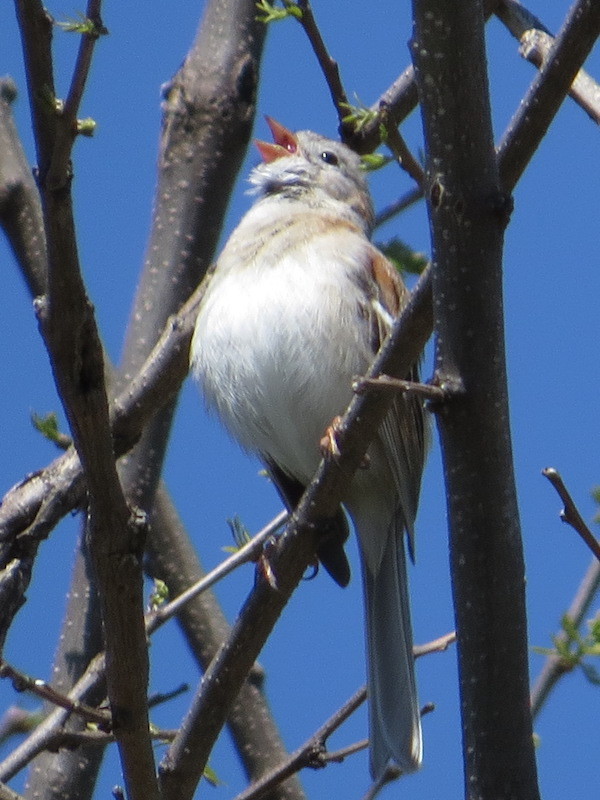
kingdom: Animalia
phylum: Chordata
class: Aves
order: Passeriformes
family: Passerellidae
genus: Spizella
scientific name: Spizella pusilla
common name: Field sparrow
